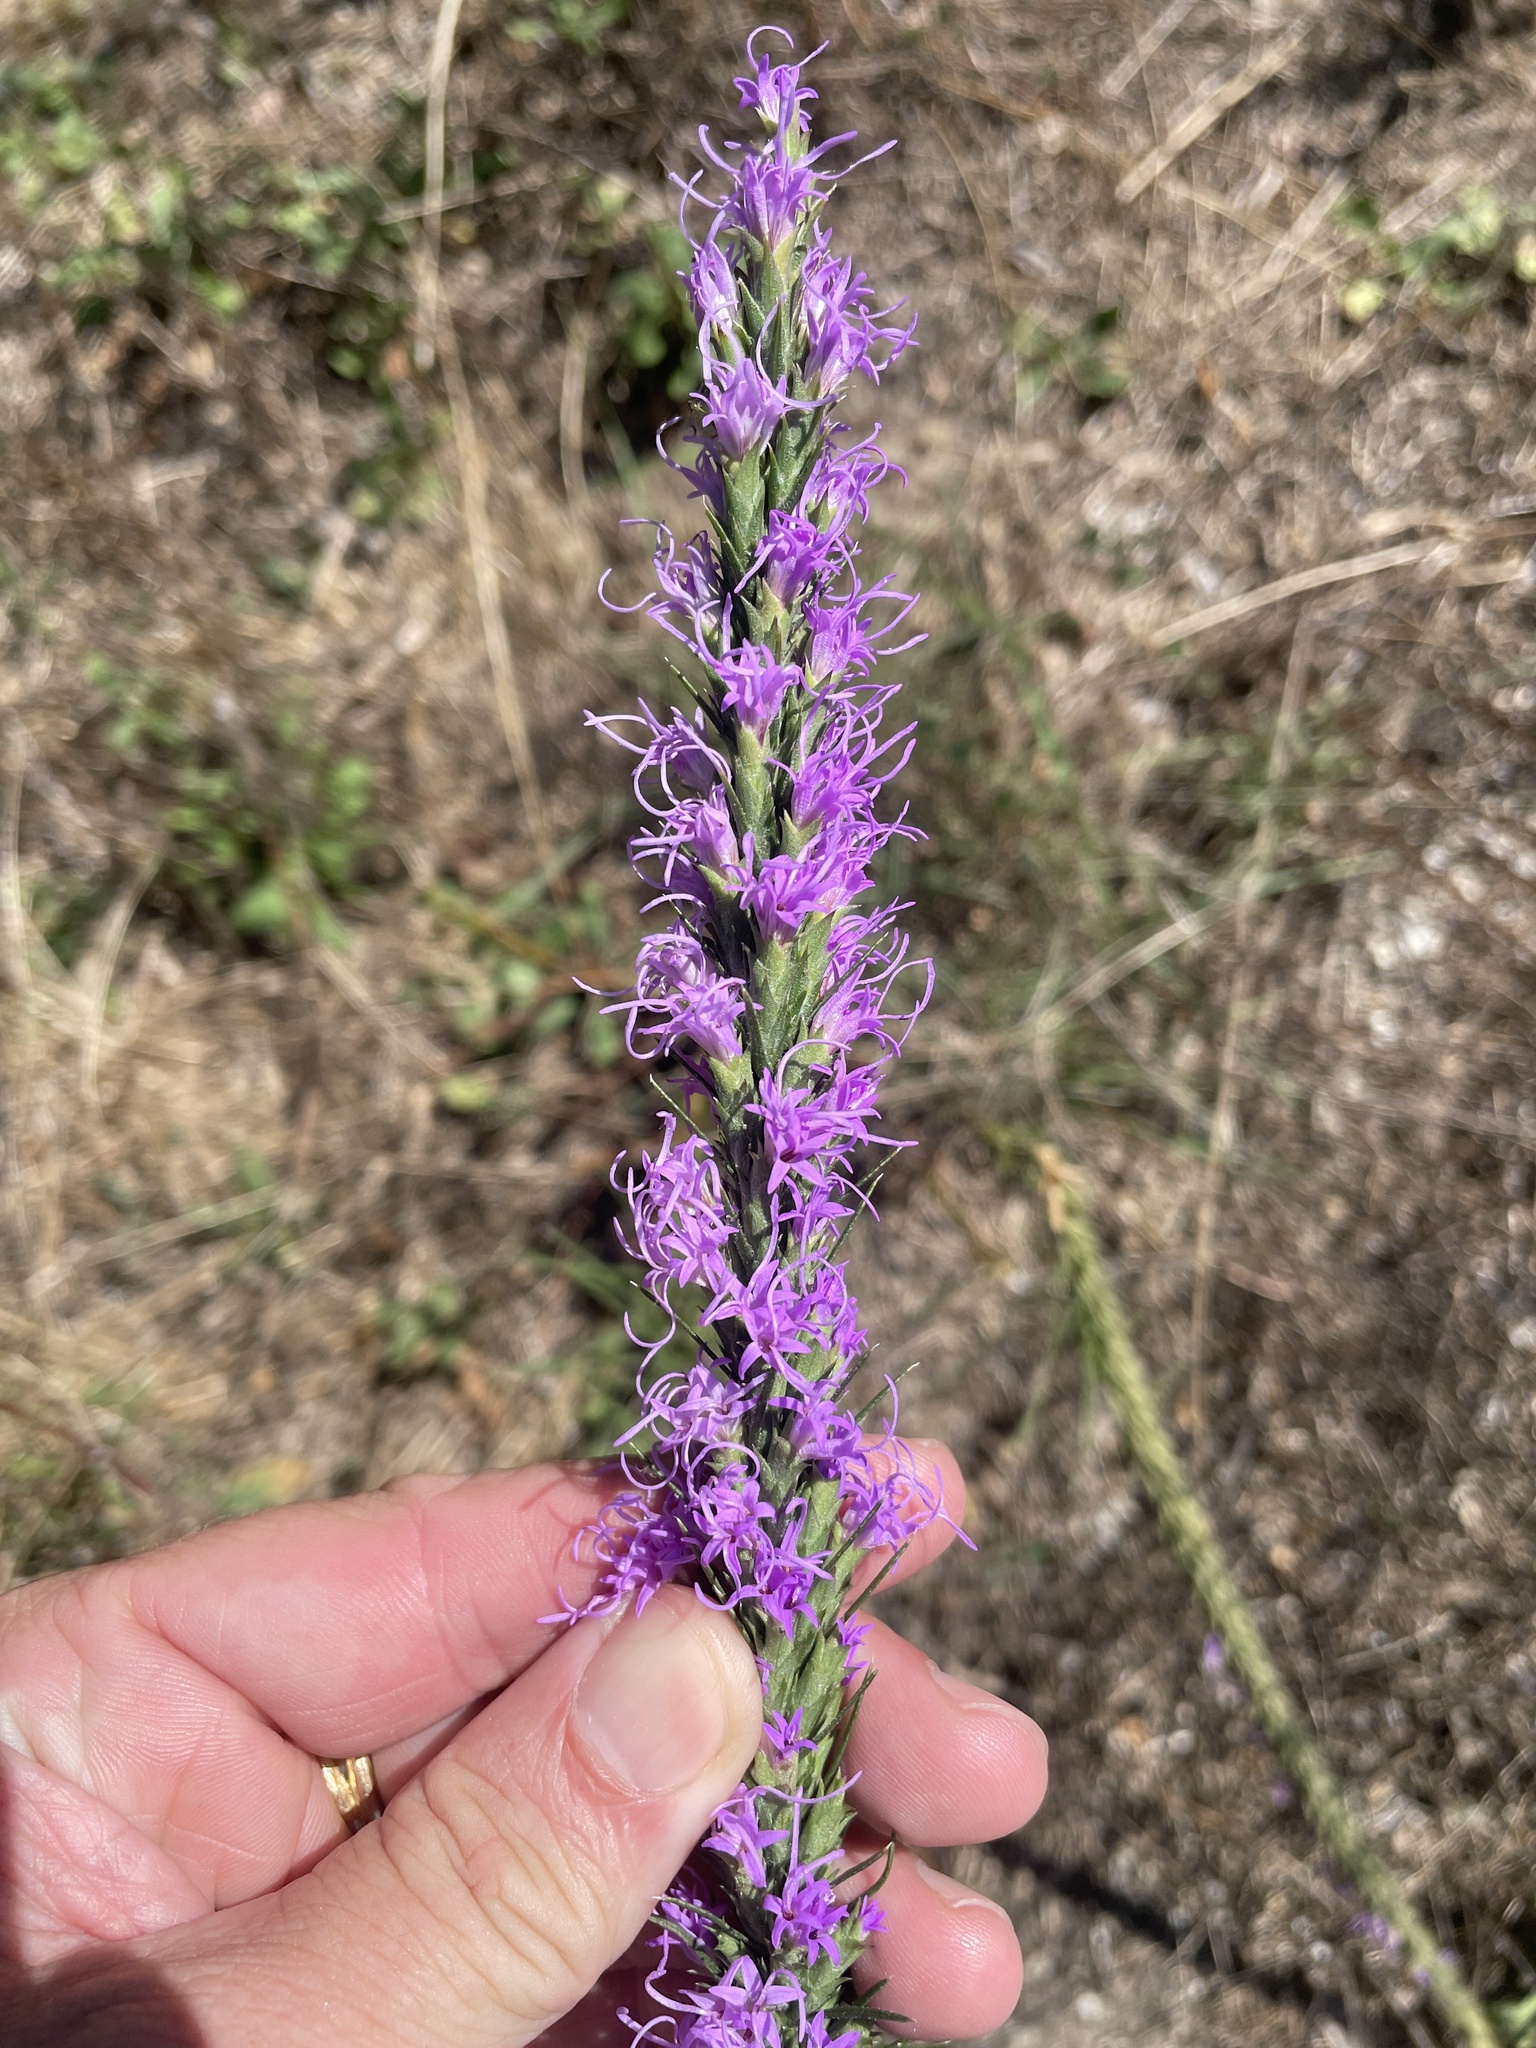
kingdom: Plantae
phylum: Tracheophyta
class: Magnoliopsida
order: Asterales
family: Asteraceae
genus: Liatris
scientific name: Liatris punctata
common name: Dotted gayfeather
